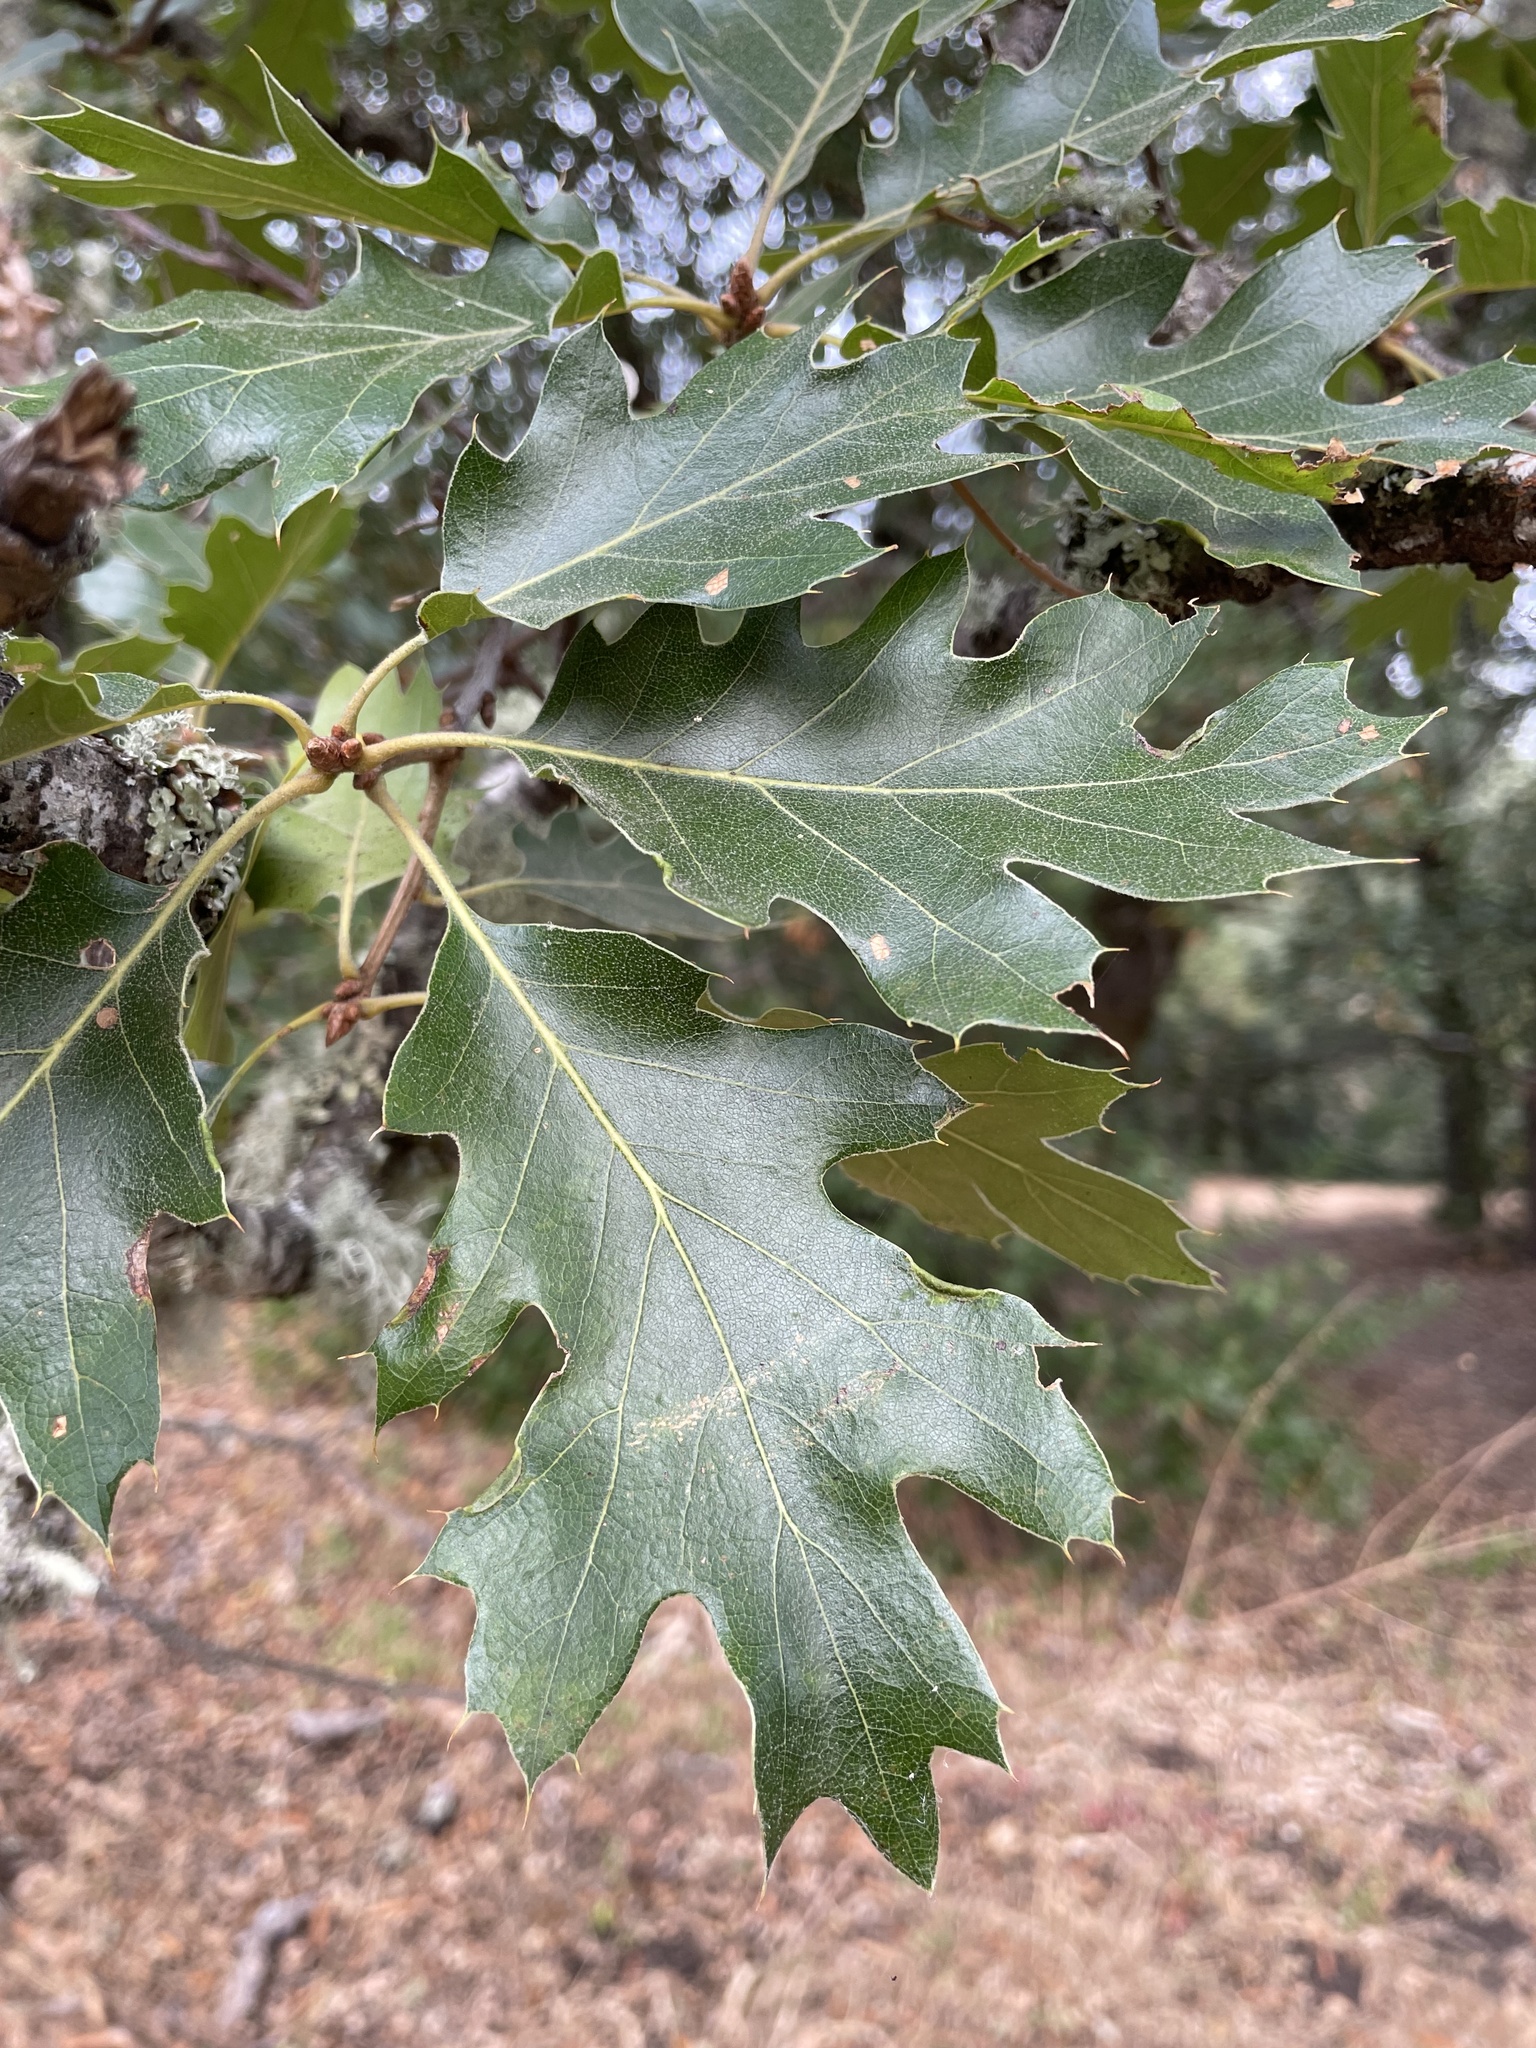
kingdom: Plantae
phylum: Tracheophyta
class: Magnoliopsida
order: Fagales
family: Fagaceae
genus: Quercus
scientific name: Quercus kelloggii
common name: California black oak
